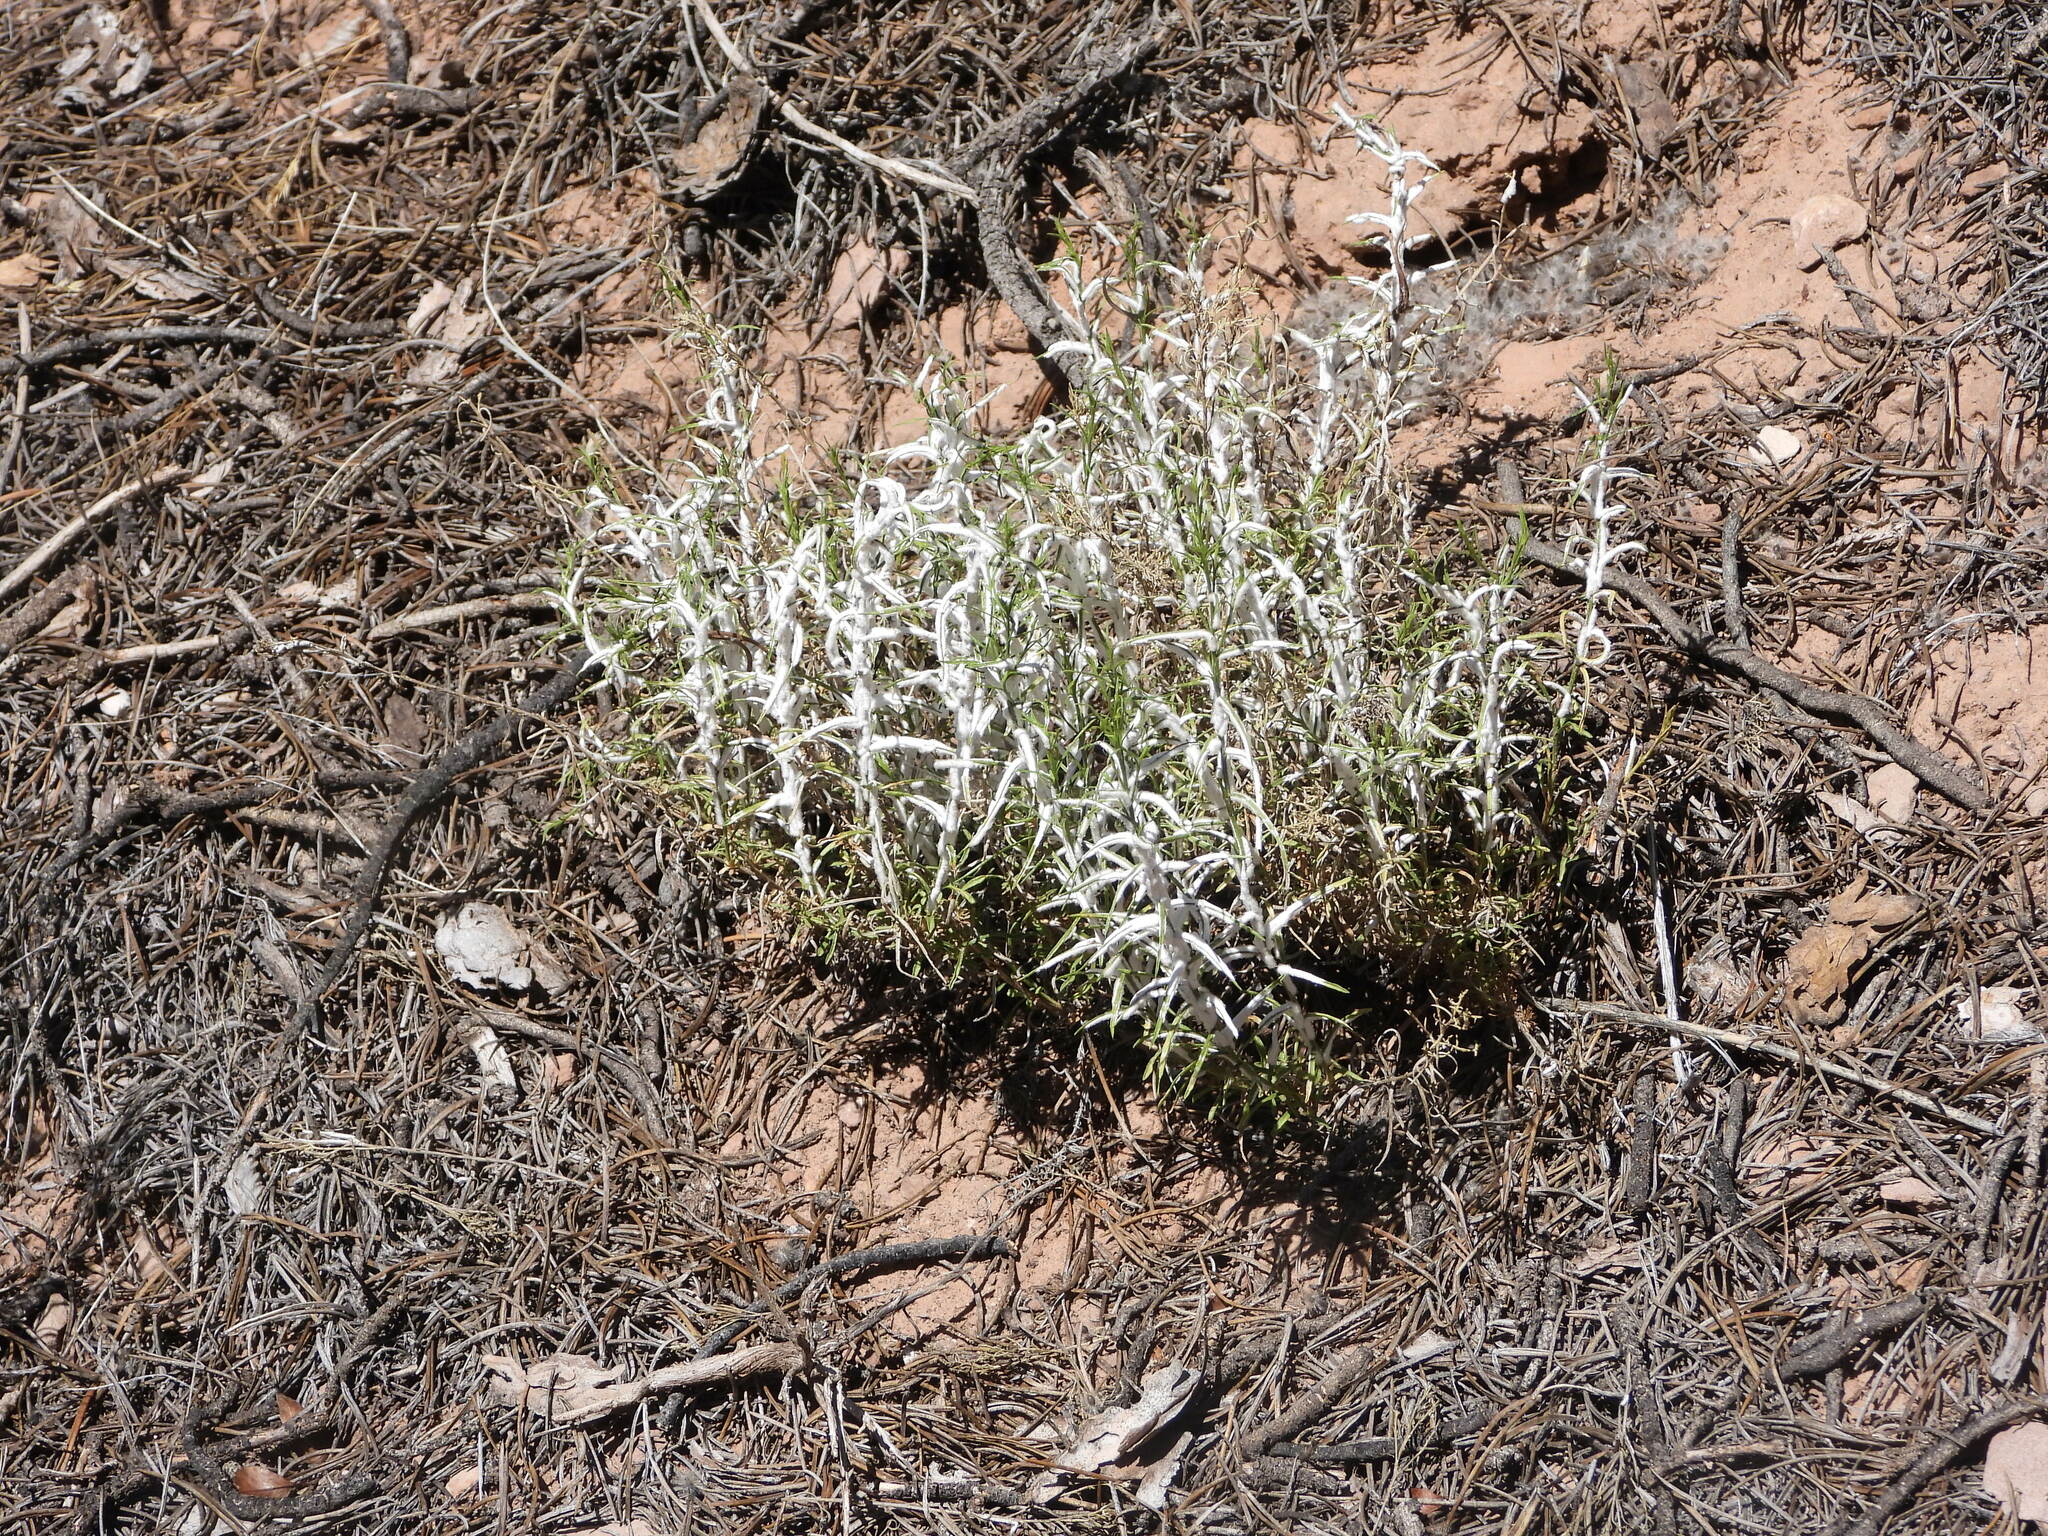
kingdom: Plantae
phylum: Tracheophyta
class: Magnoliopsida
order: Asterales
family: Asteraceae
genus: Tetradymia
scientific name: Tetradymia nuttallii
